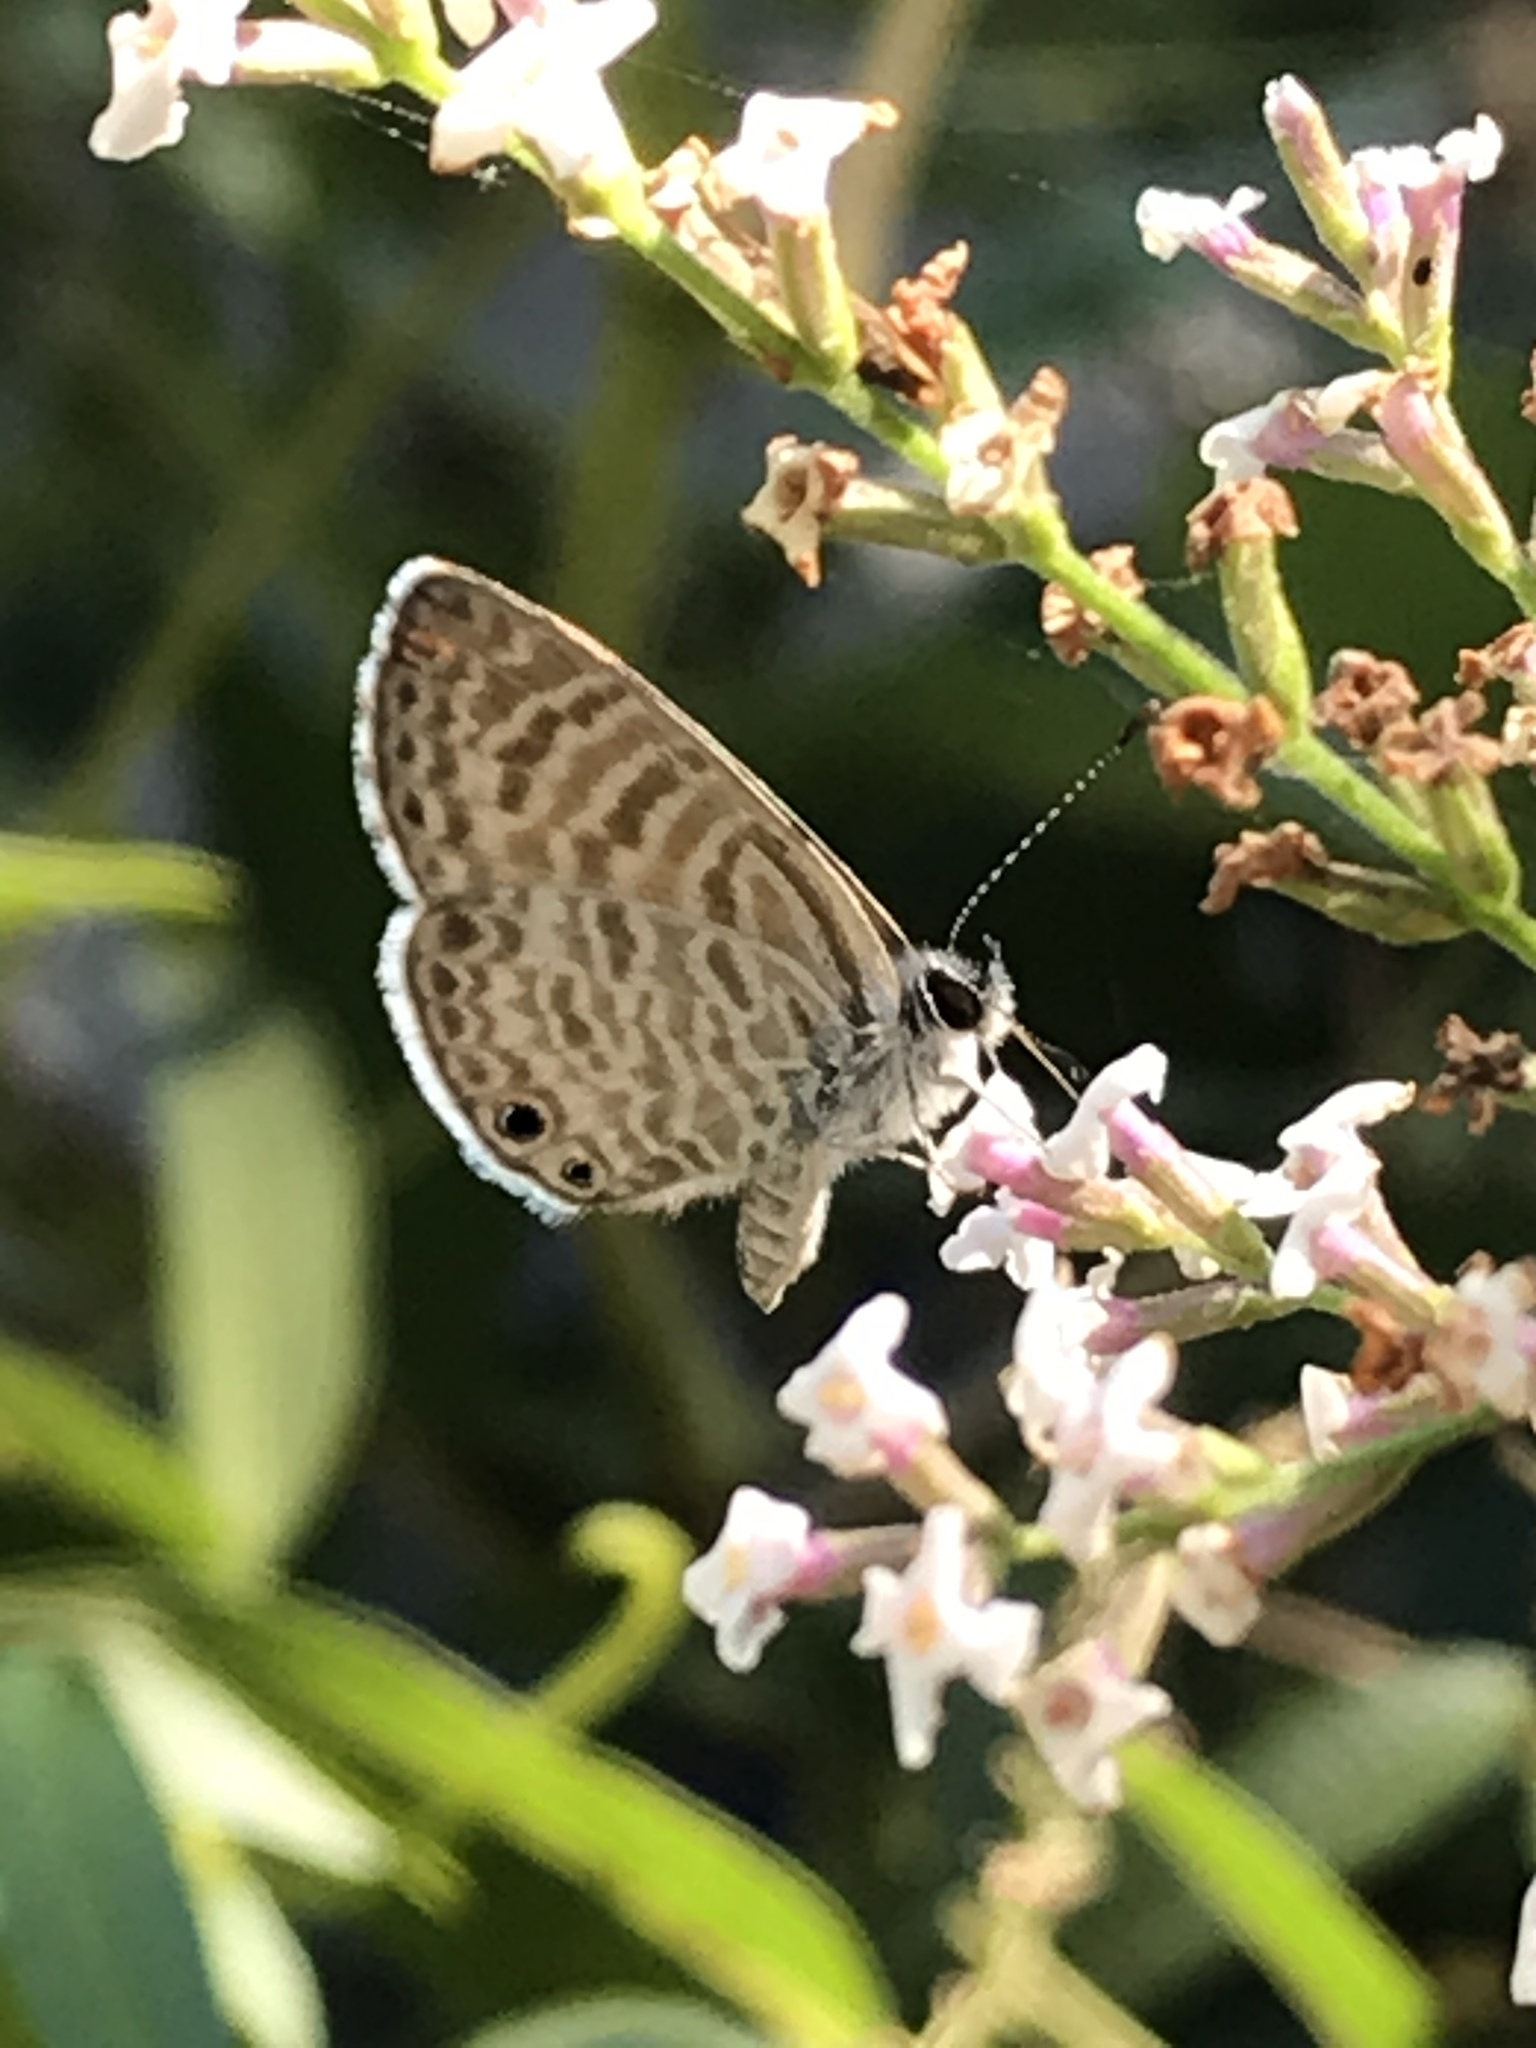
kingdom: Animalia
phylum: Arthropoda
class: Insecta
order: Lepidoptera
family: Lycaenidae
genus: Leptotes
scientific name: Leptotes marina
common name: Marine blue
